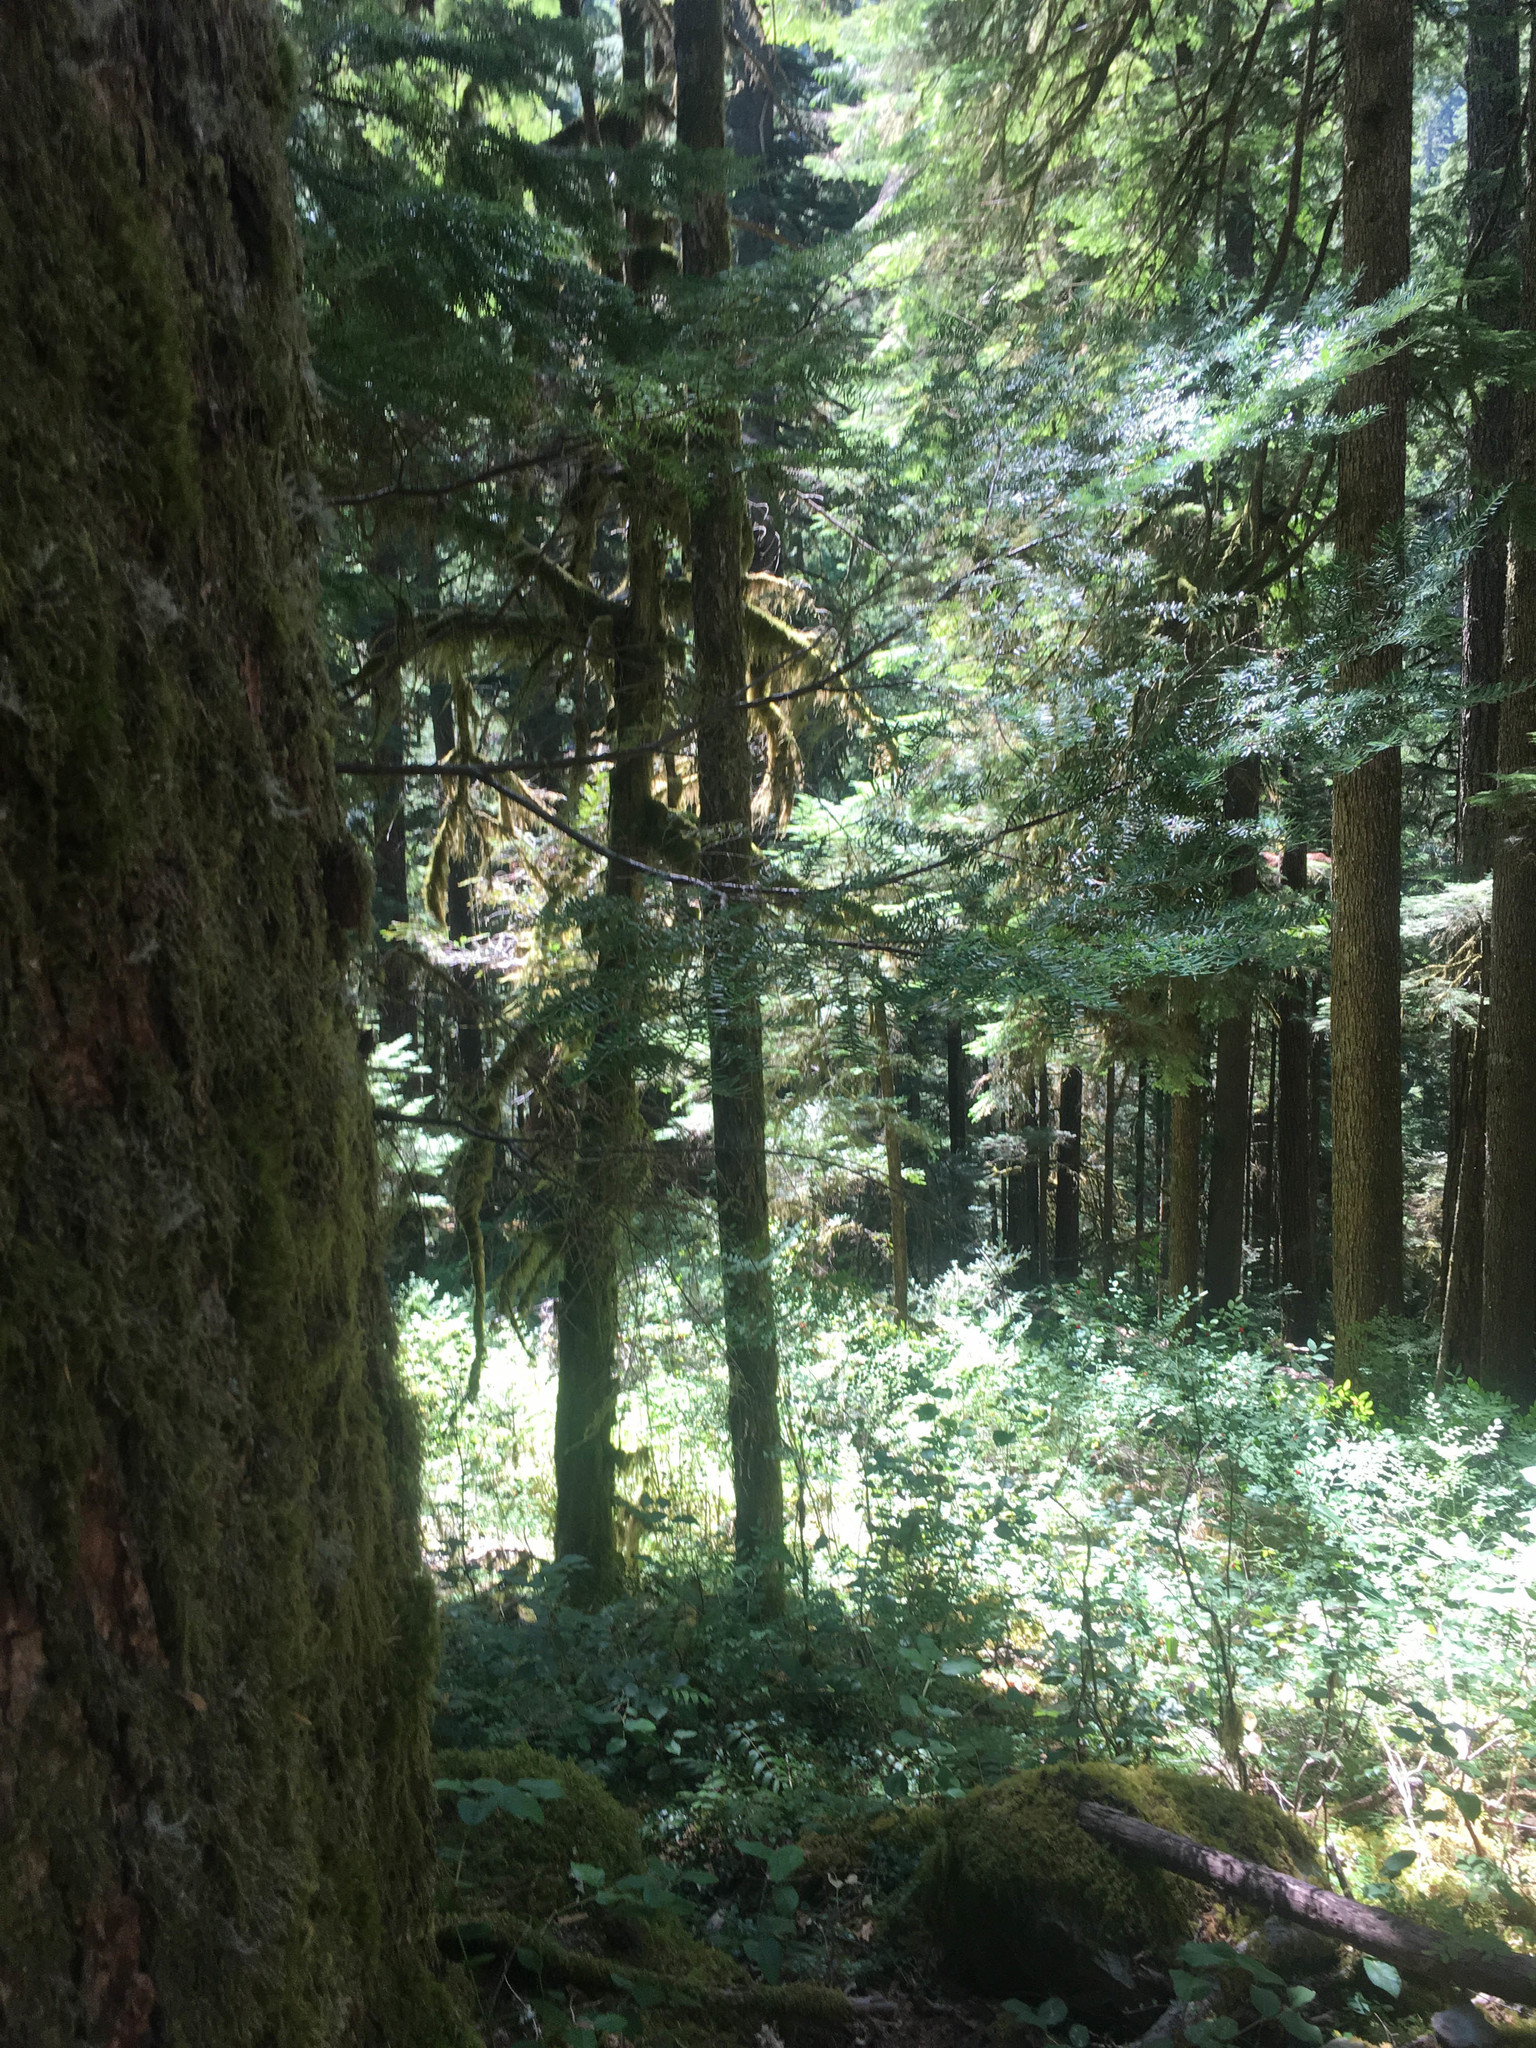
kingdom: Plantae
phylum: Tracheophyta
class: Pinopsida
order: Pinales
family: Pinaceae
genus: Tsuga
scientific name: Tsuga heterophylla
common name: Western hemlock
